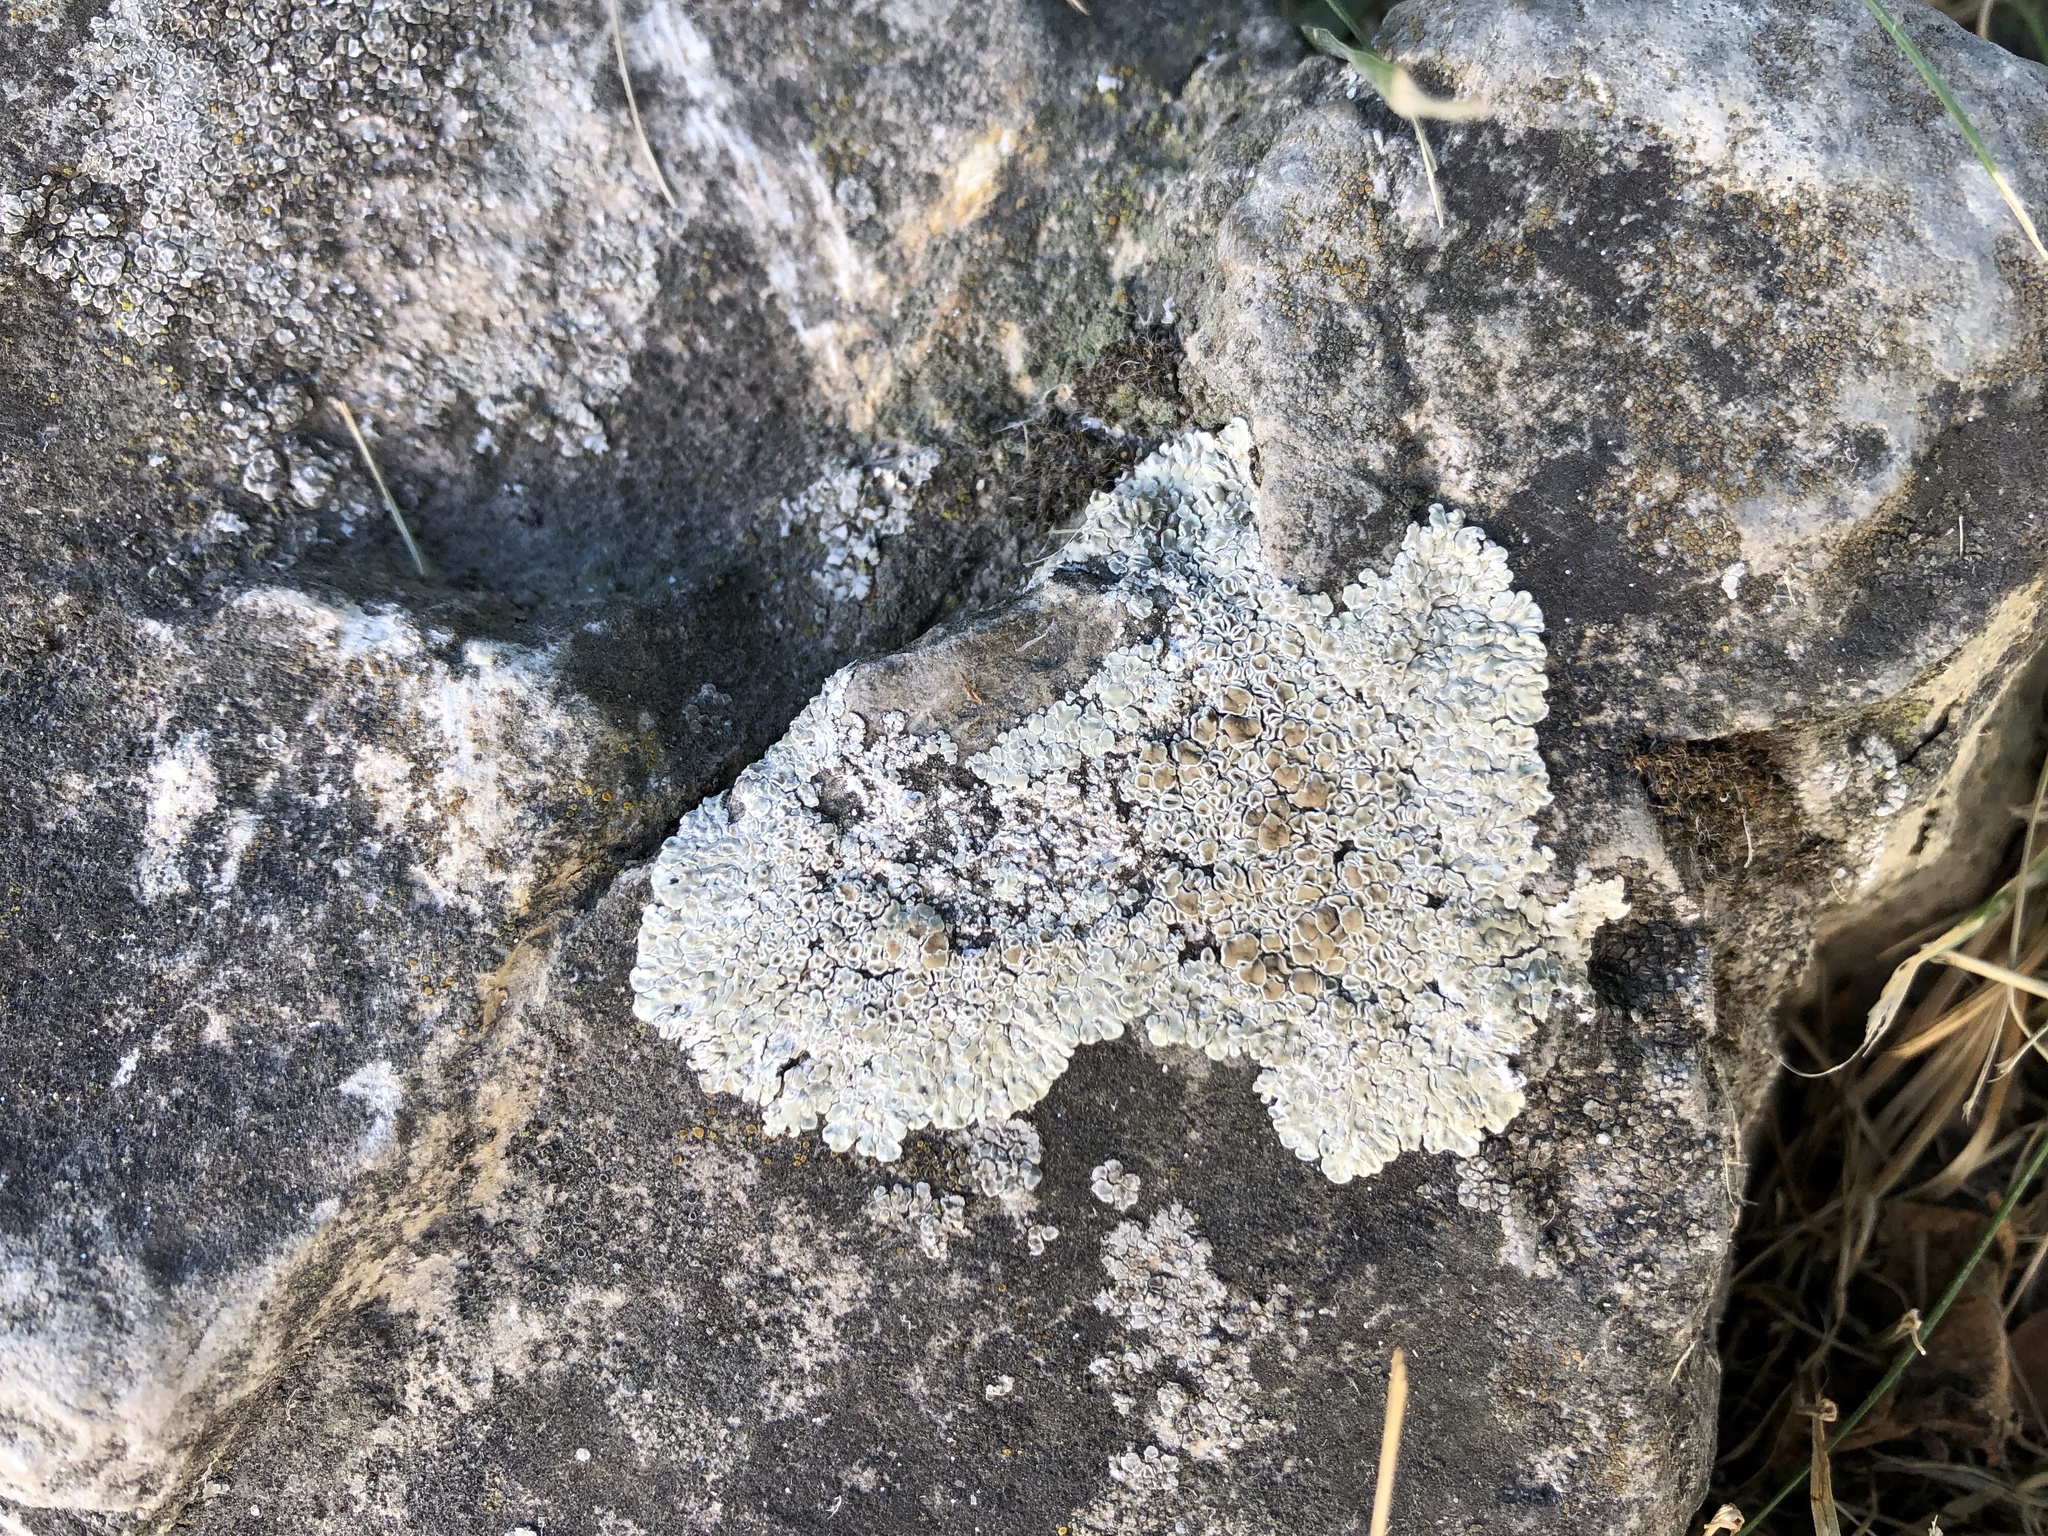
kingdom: Fungi
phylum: Ascomycota
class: Lecanoromycetes
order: Lecanorales
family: Lecanoraceae
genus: Protoparmeliopsis
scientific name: Protoparmeliopsis muralis
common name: Stonewall rim lichen
